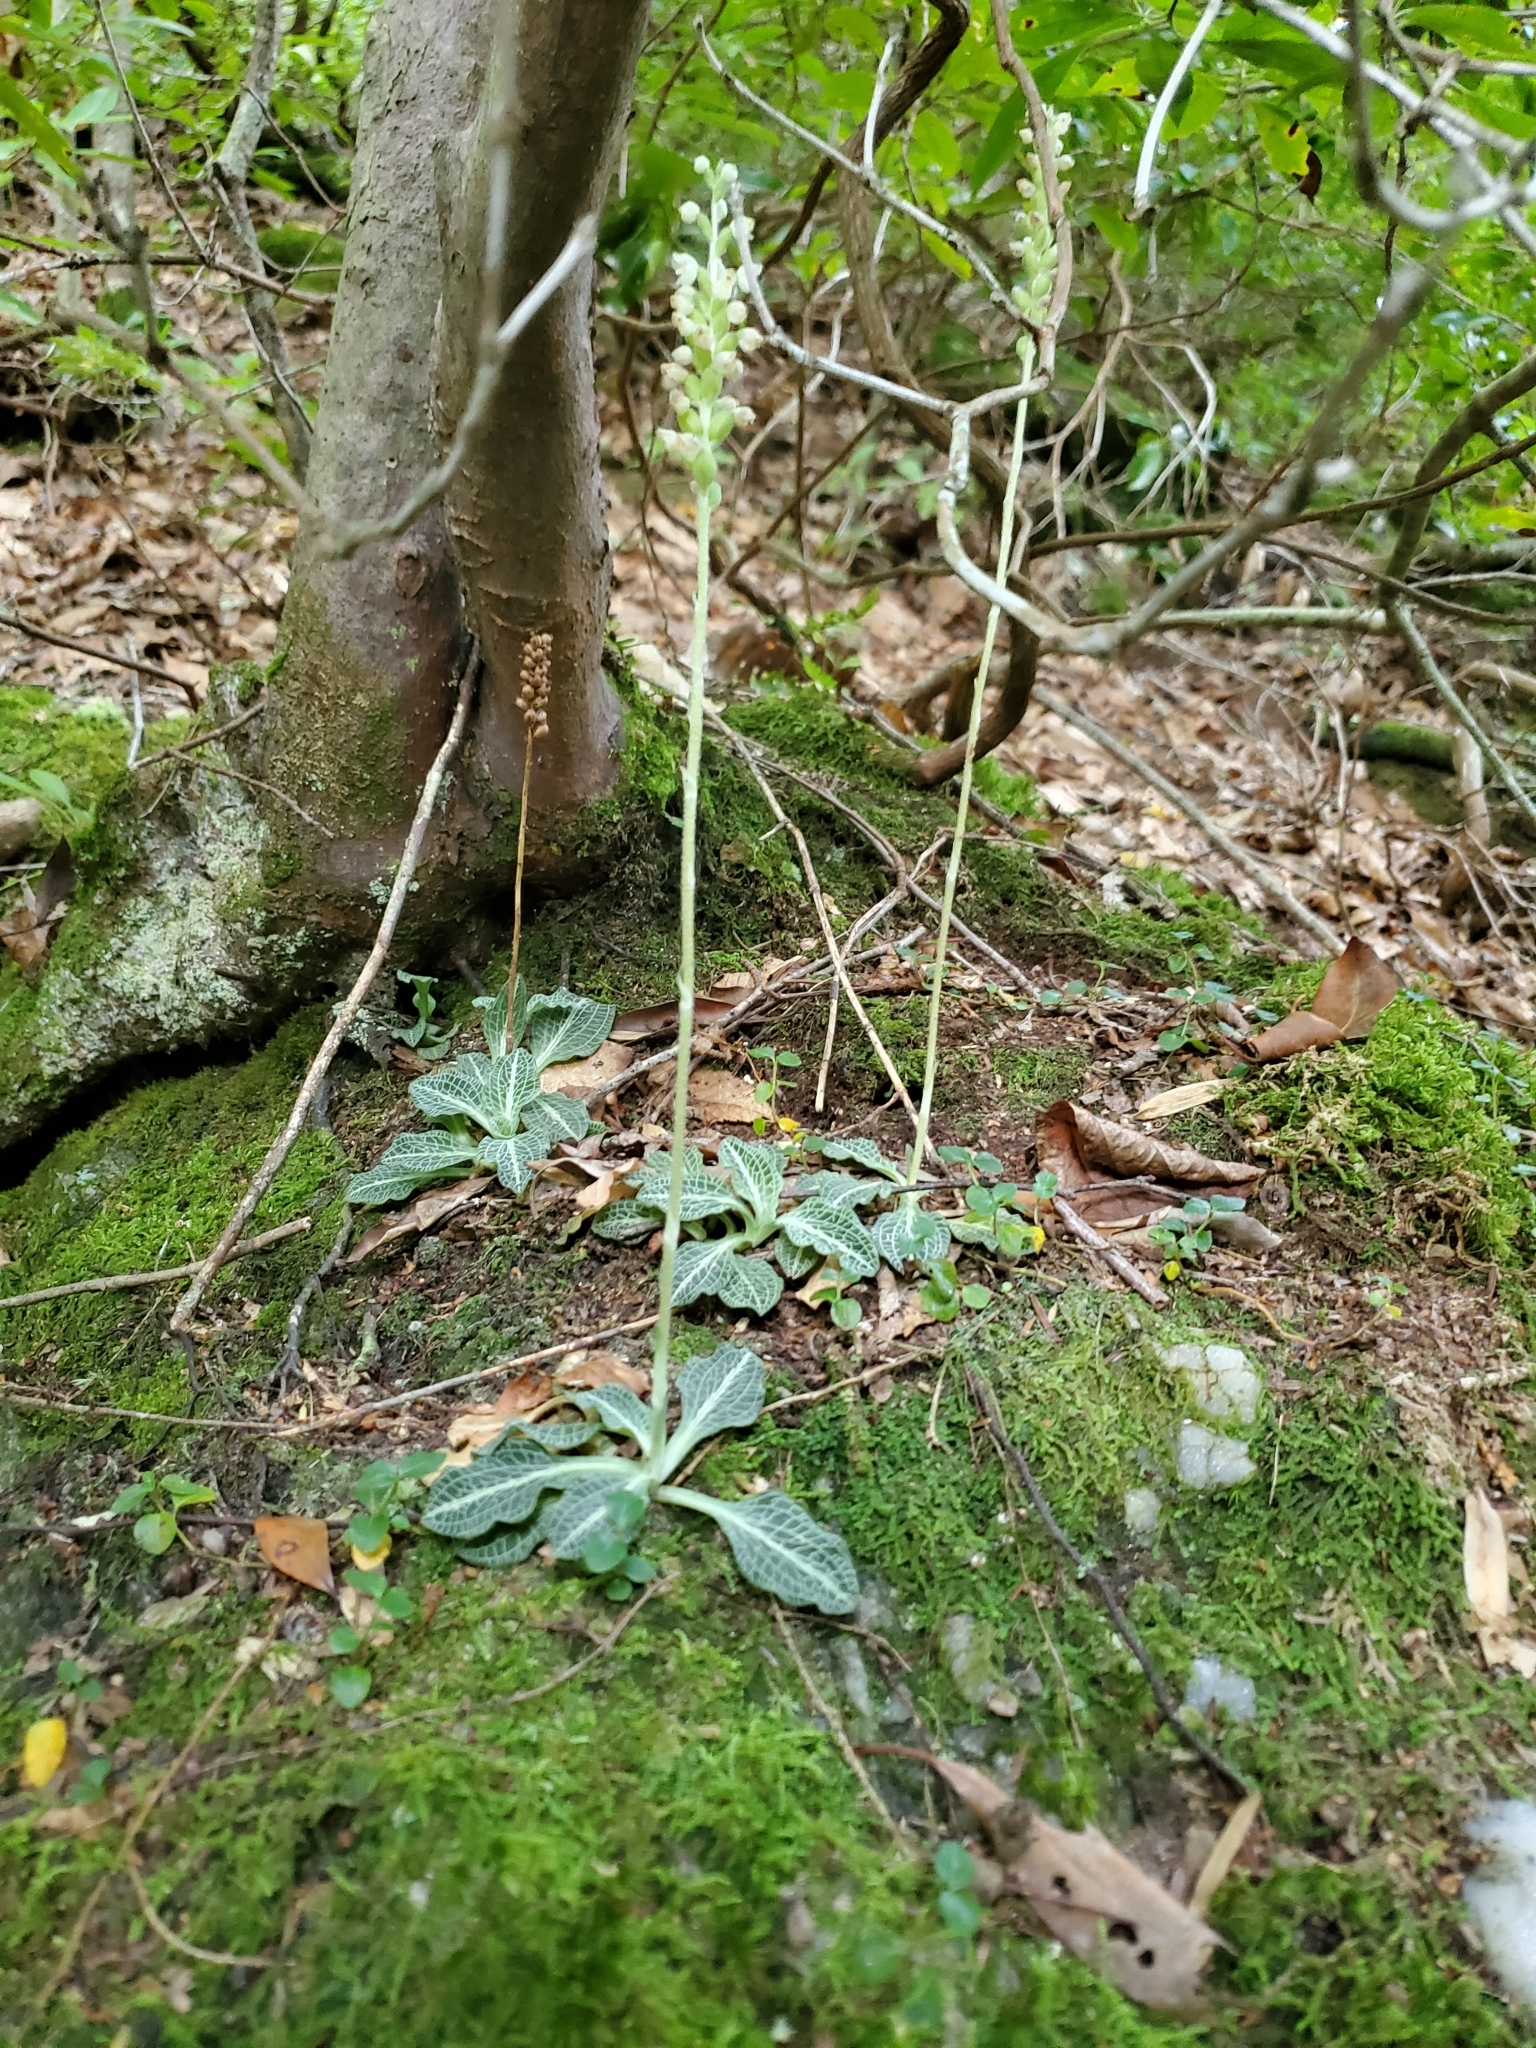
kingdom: Plantae
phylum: Tracheophyta
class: Liliopsida
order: Asparagales
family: Orchidaceae
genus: Goodyera
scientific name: Goodyera pubescens
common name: Downy rattlesnake-plantain
